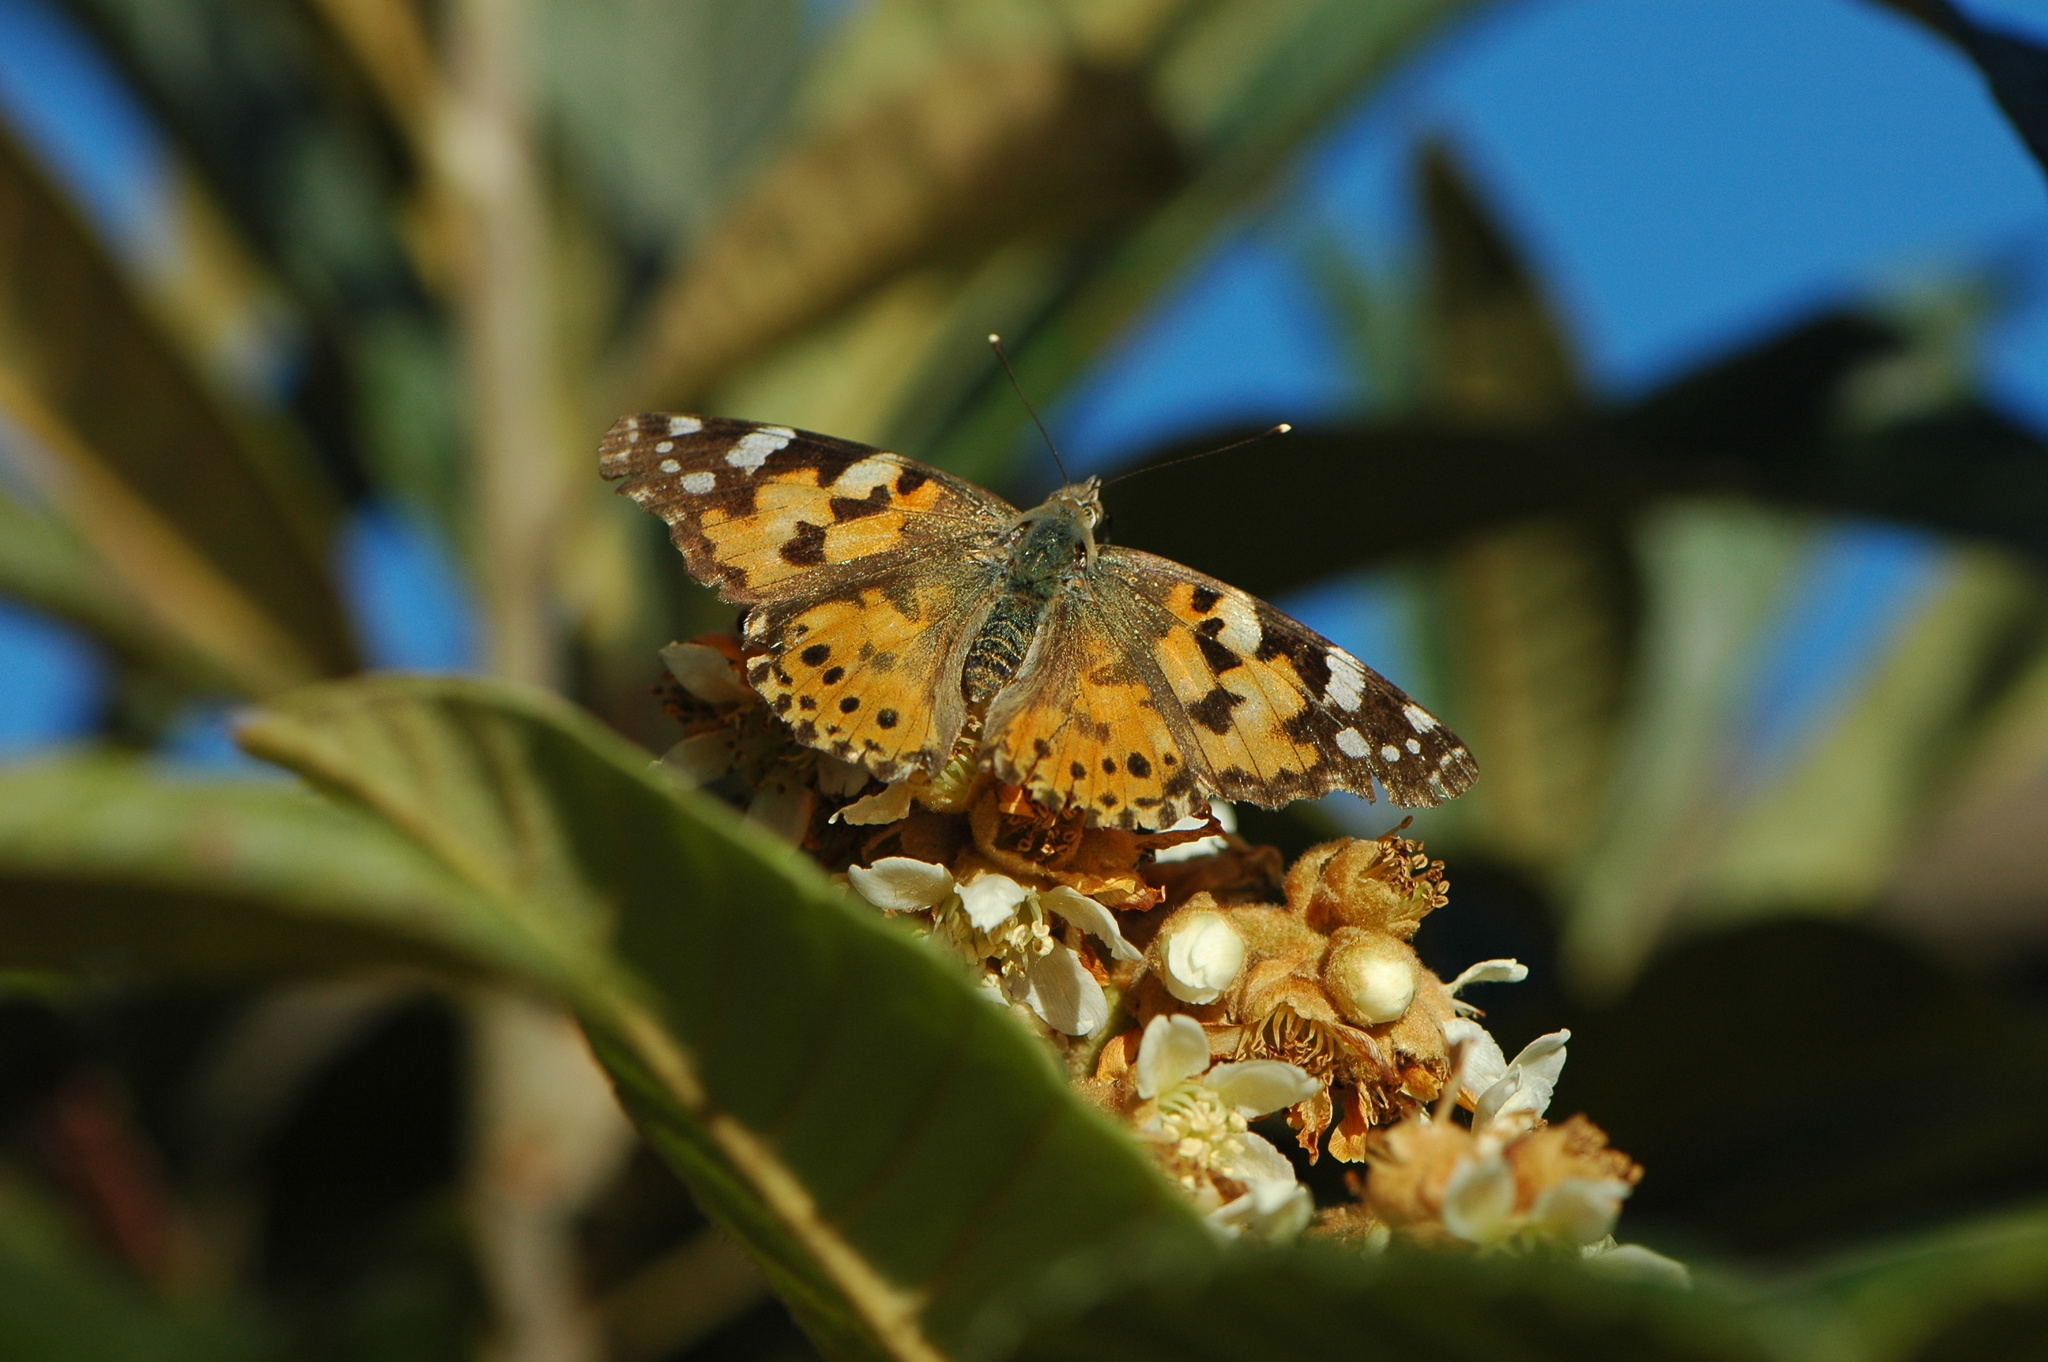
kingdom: Animalia
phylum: Arthropoda
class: Insecta
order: Lepidoptera
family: Nymphalidae
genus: Vanessa
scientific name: Vanessa cardui
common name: Painted lady
